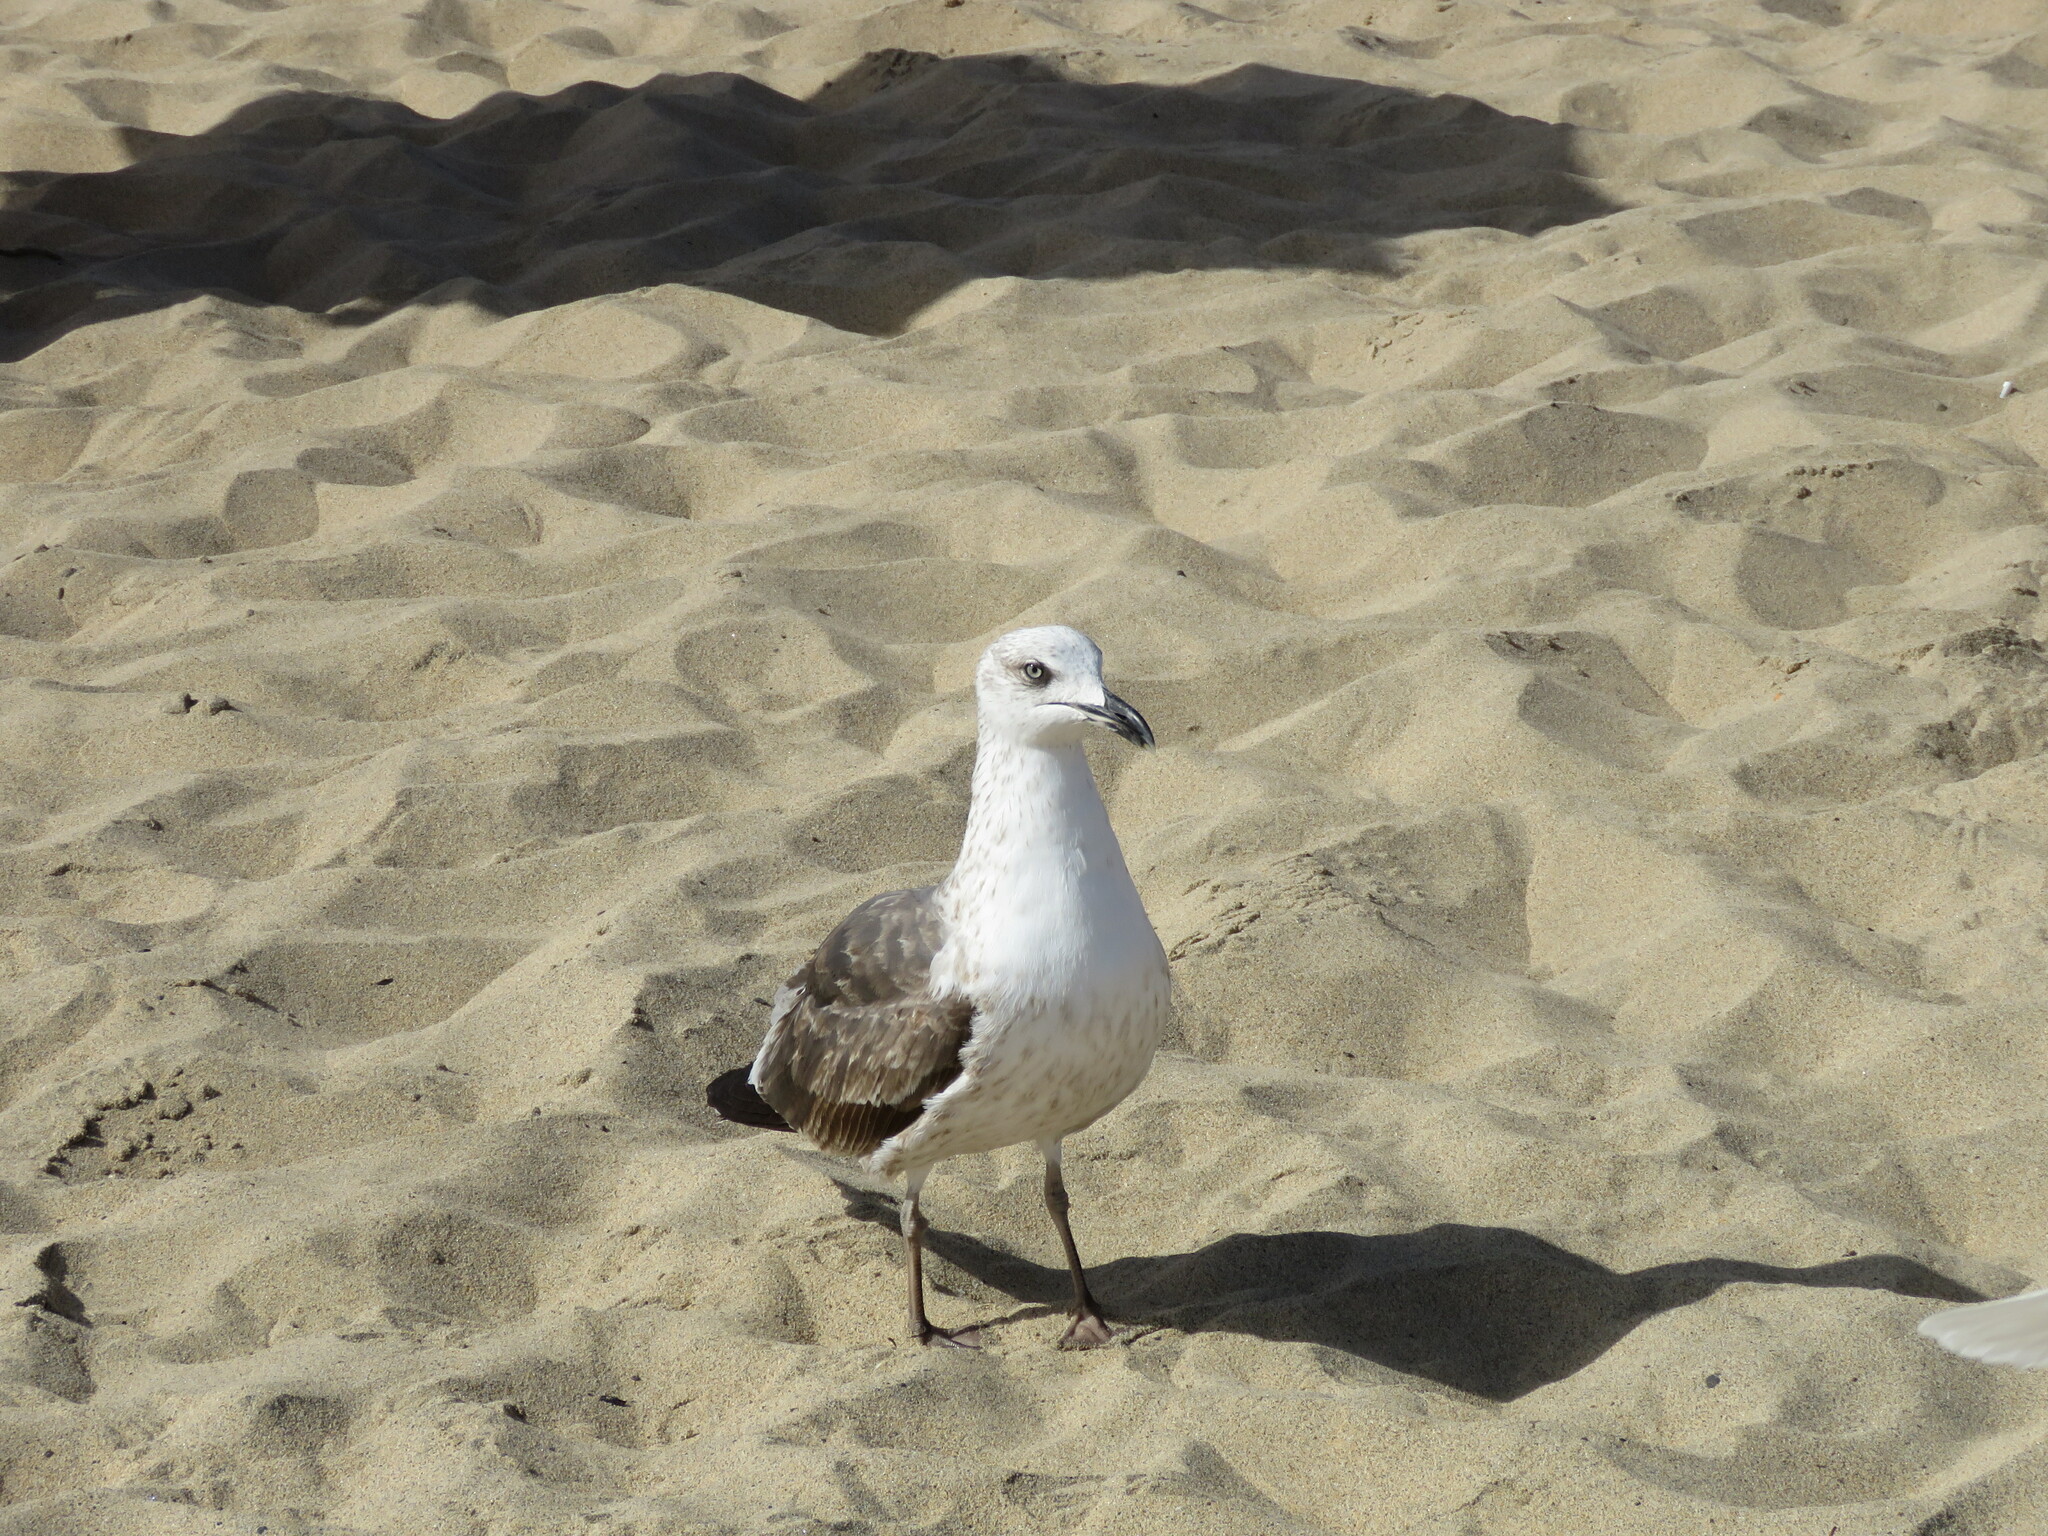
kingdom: Animalia
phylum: Chordata
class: Aves
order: Charadriiformes
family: Laridae
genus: Larus
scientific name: Larus michahellis
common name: Yellow-legged gull
